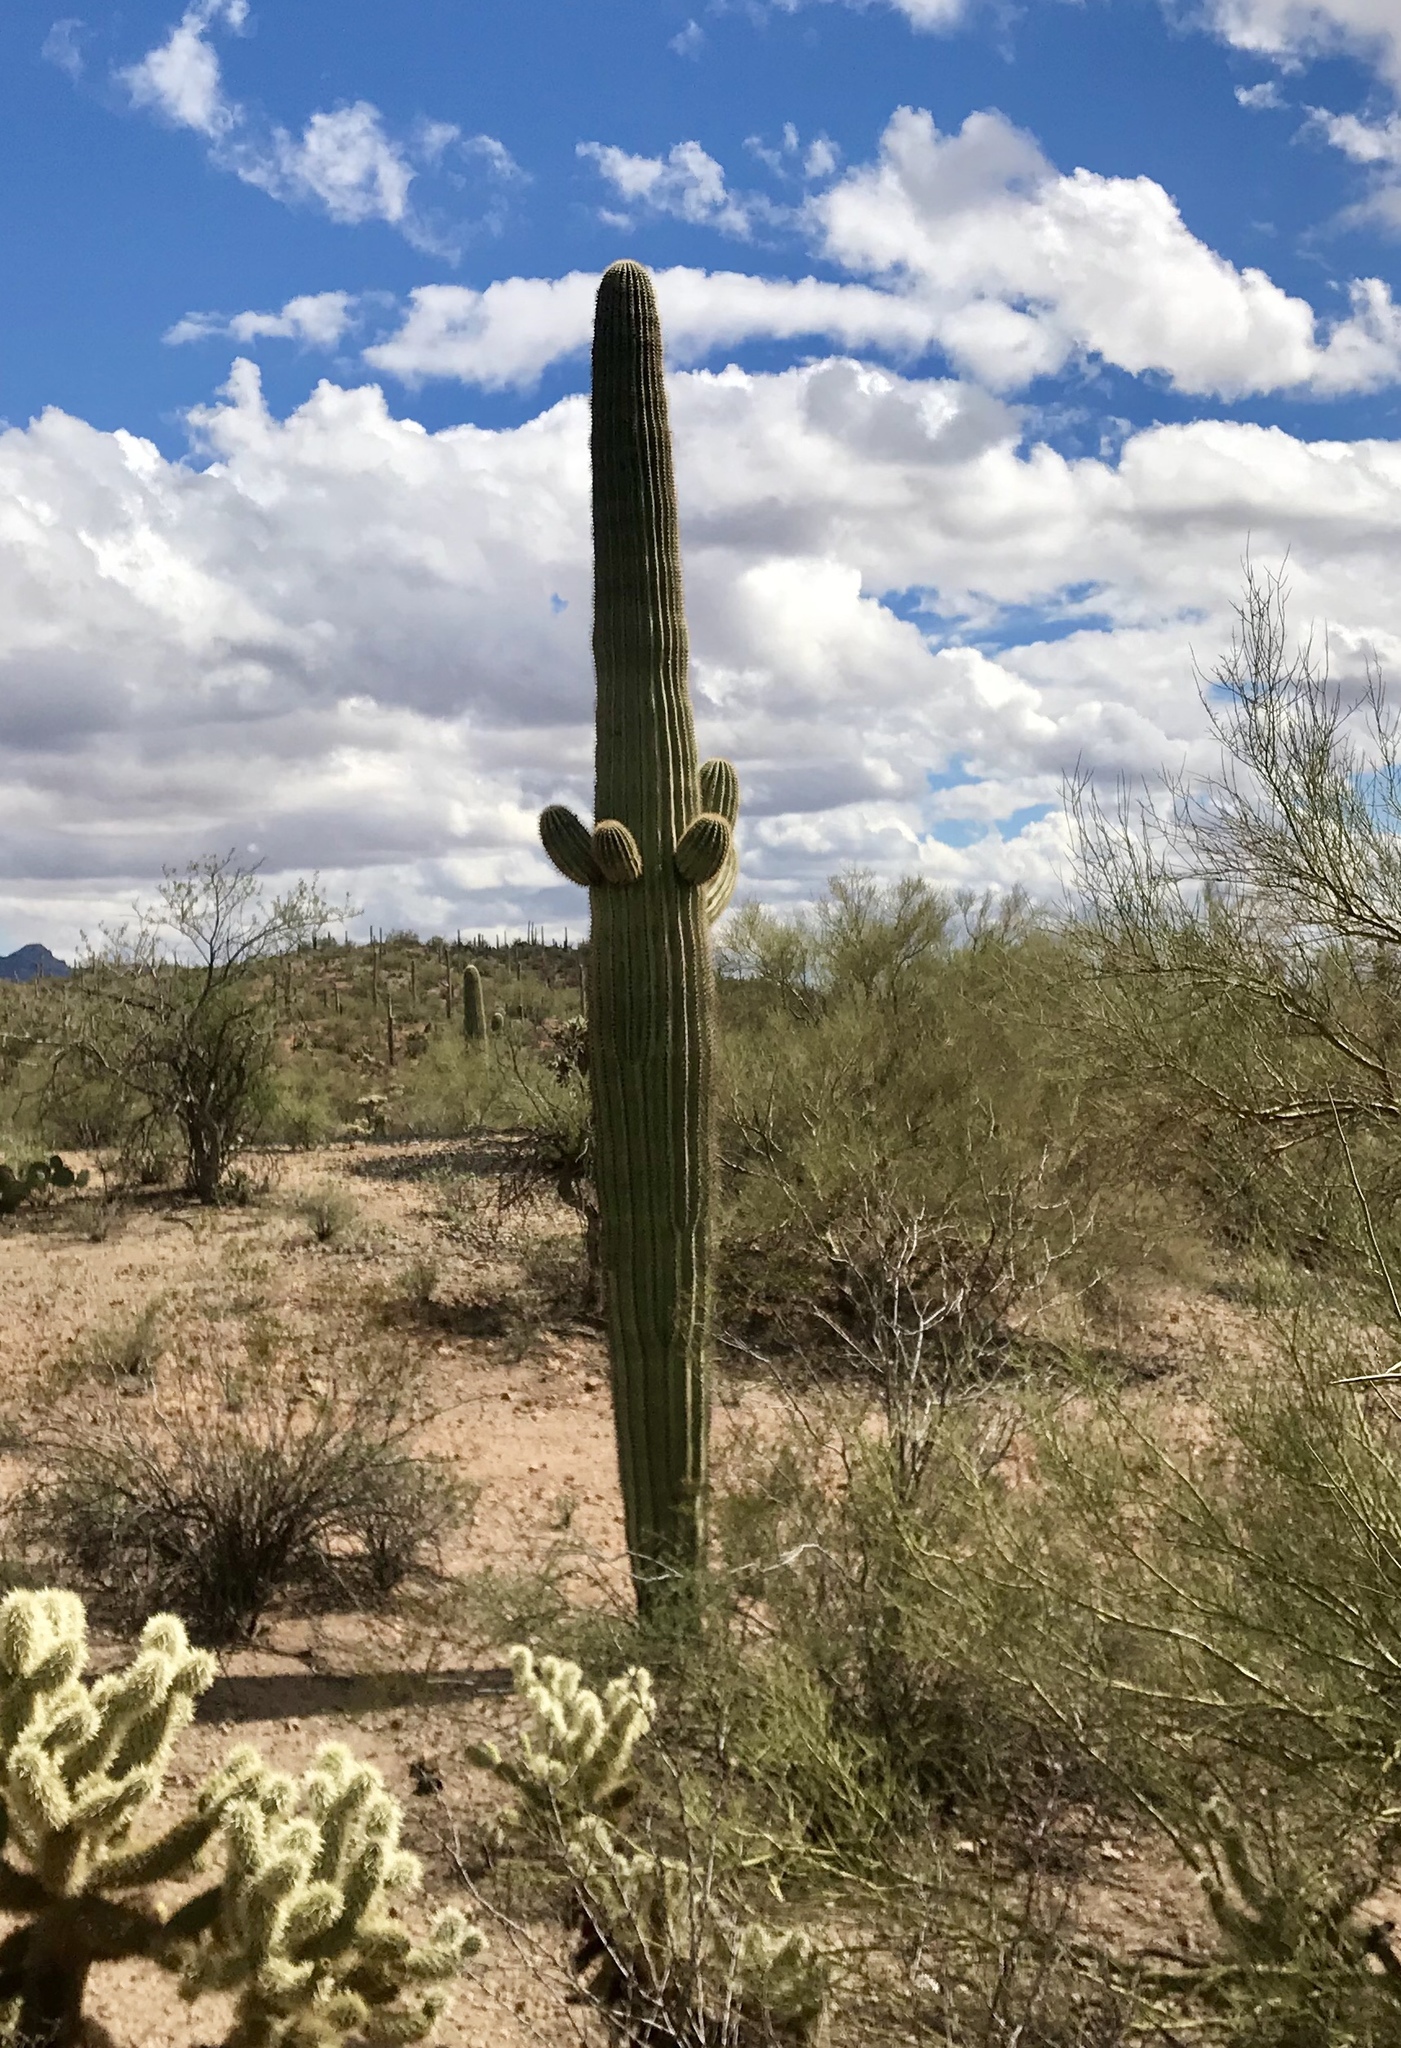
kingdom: Plantae
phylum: Tracheophyta
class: Magnoliopsida
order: Caryophyllales
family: Cactaceae
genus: Carnegiea
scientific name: Carnegiea gigantea
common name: Saguaro
